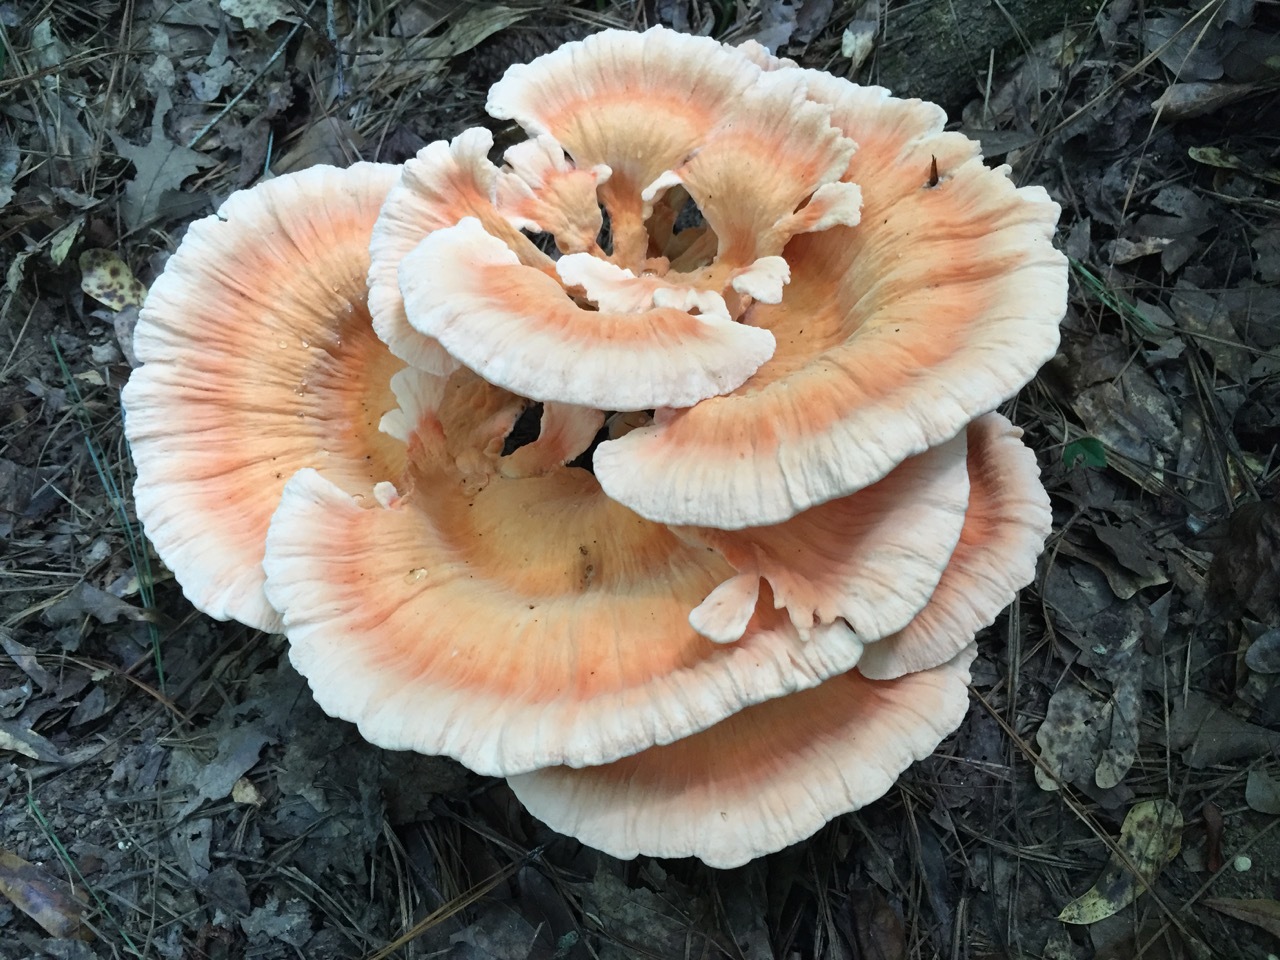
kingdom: Fungi
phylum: Basidiomycota
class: Agaricomycetes
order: Polyporales
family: Laetiporaceae
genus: Laetiporus
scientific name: Laetiporus sulphureus
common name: Chicken of the woods
